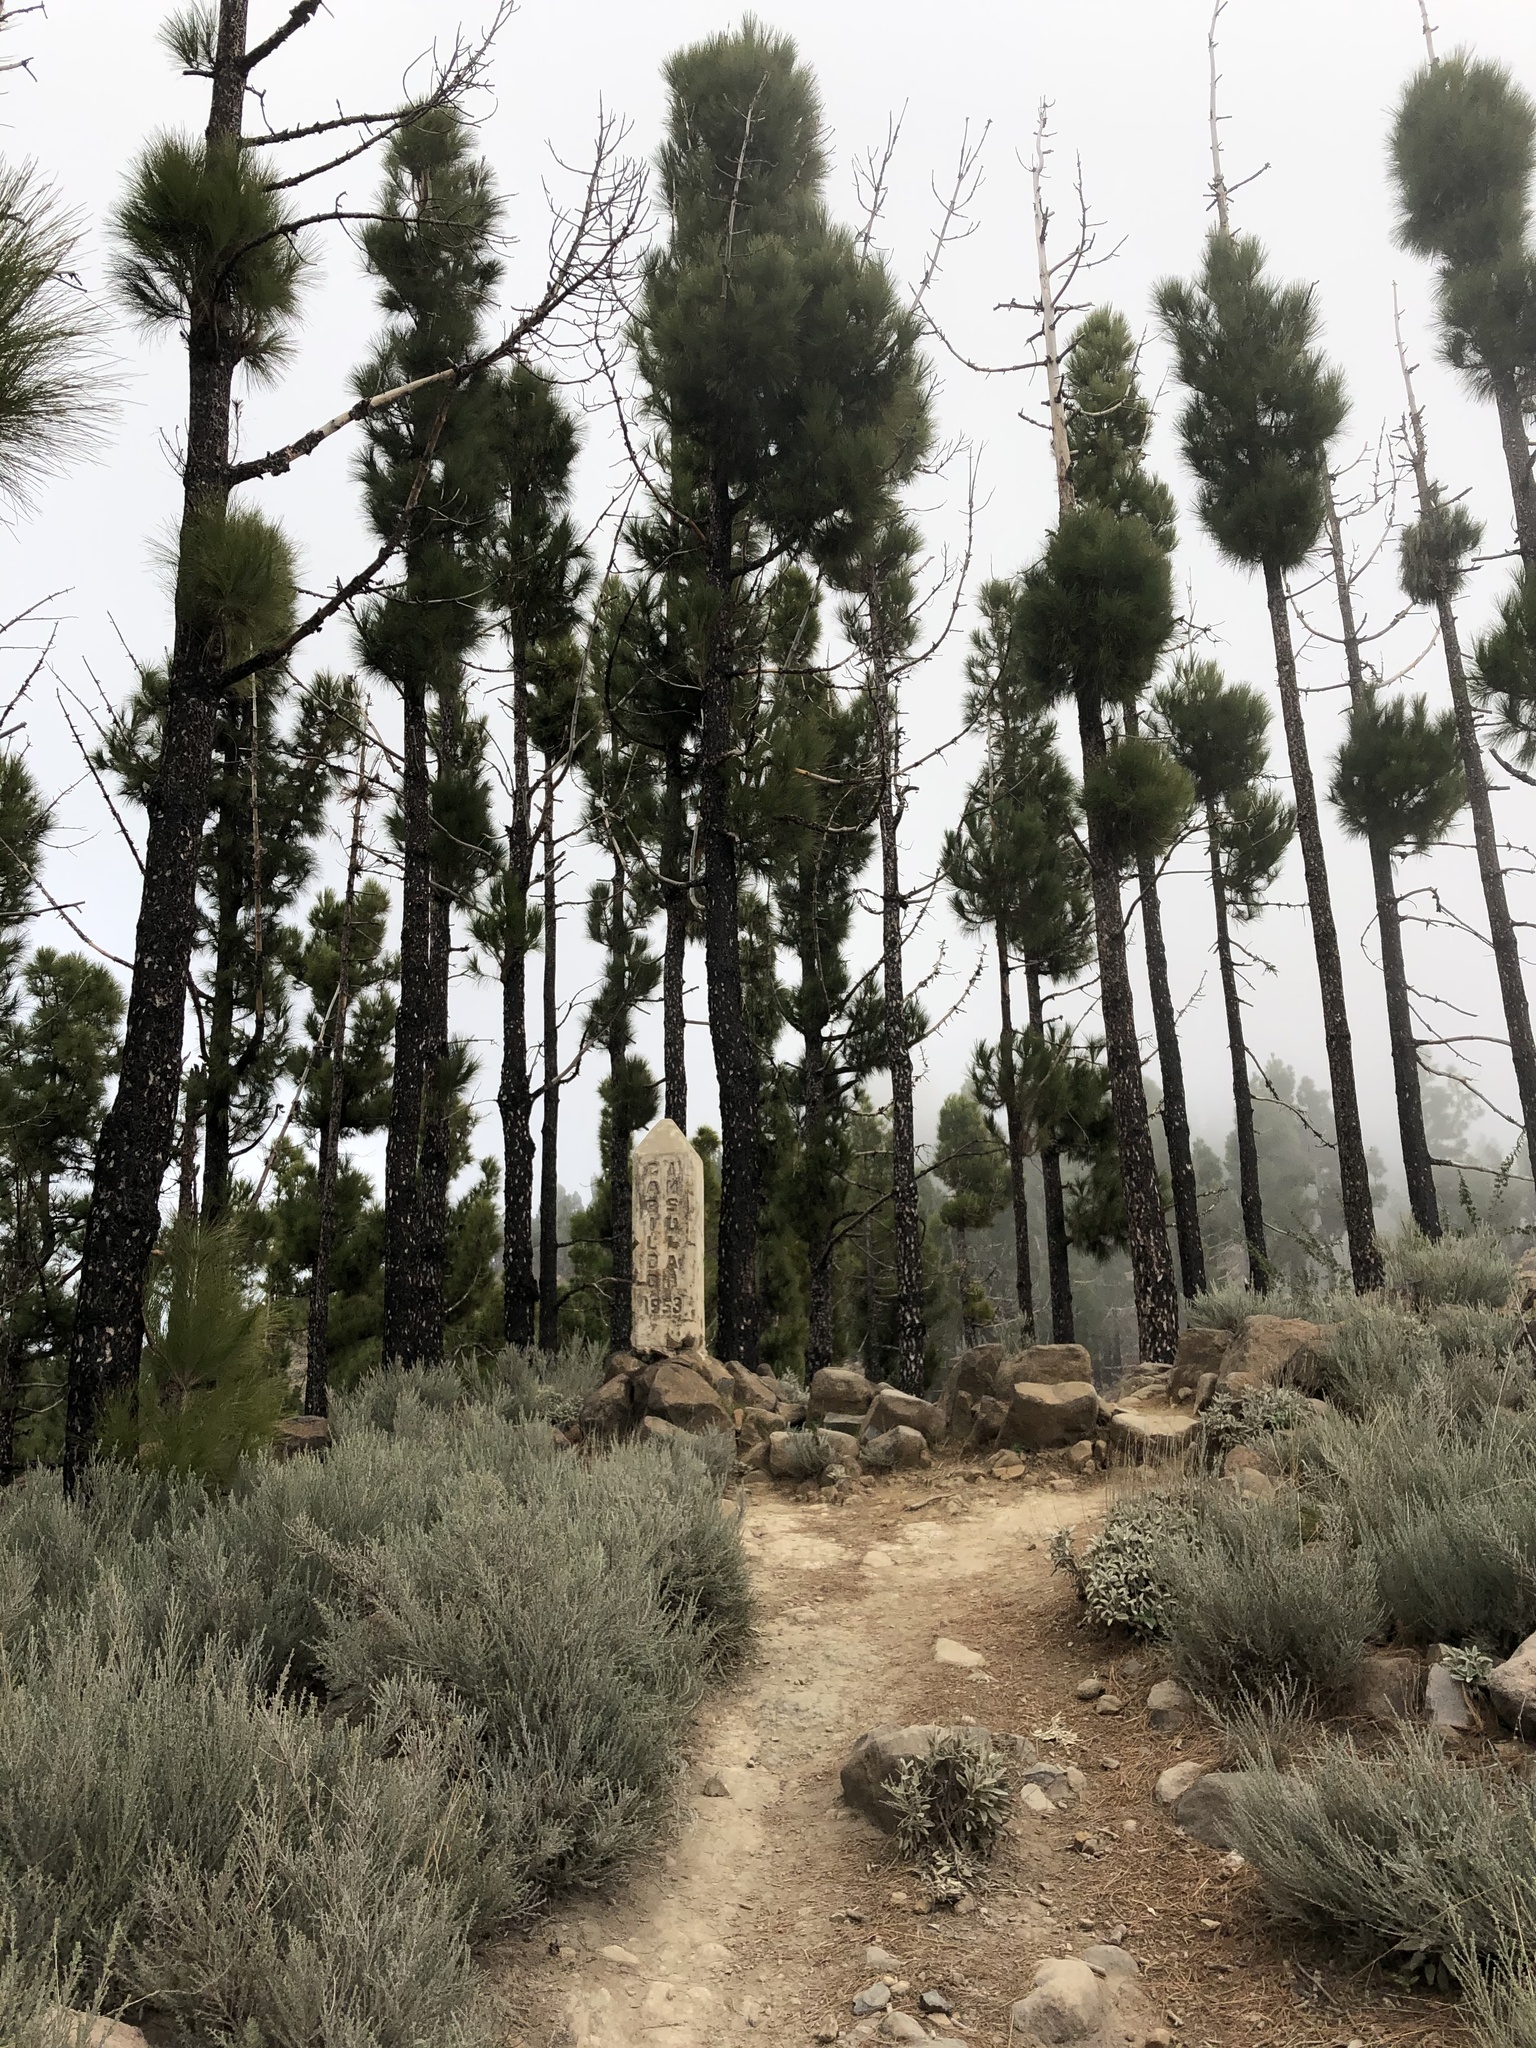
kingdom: Plantae
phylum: Tracheophyta
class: Pinopsida
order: Pinales
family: Pinaceae
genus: Pinus
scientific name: Pinus canariensis
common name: Canary islands pine
